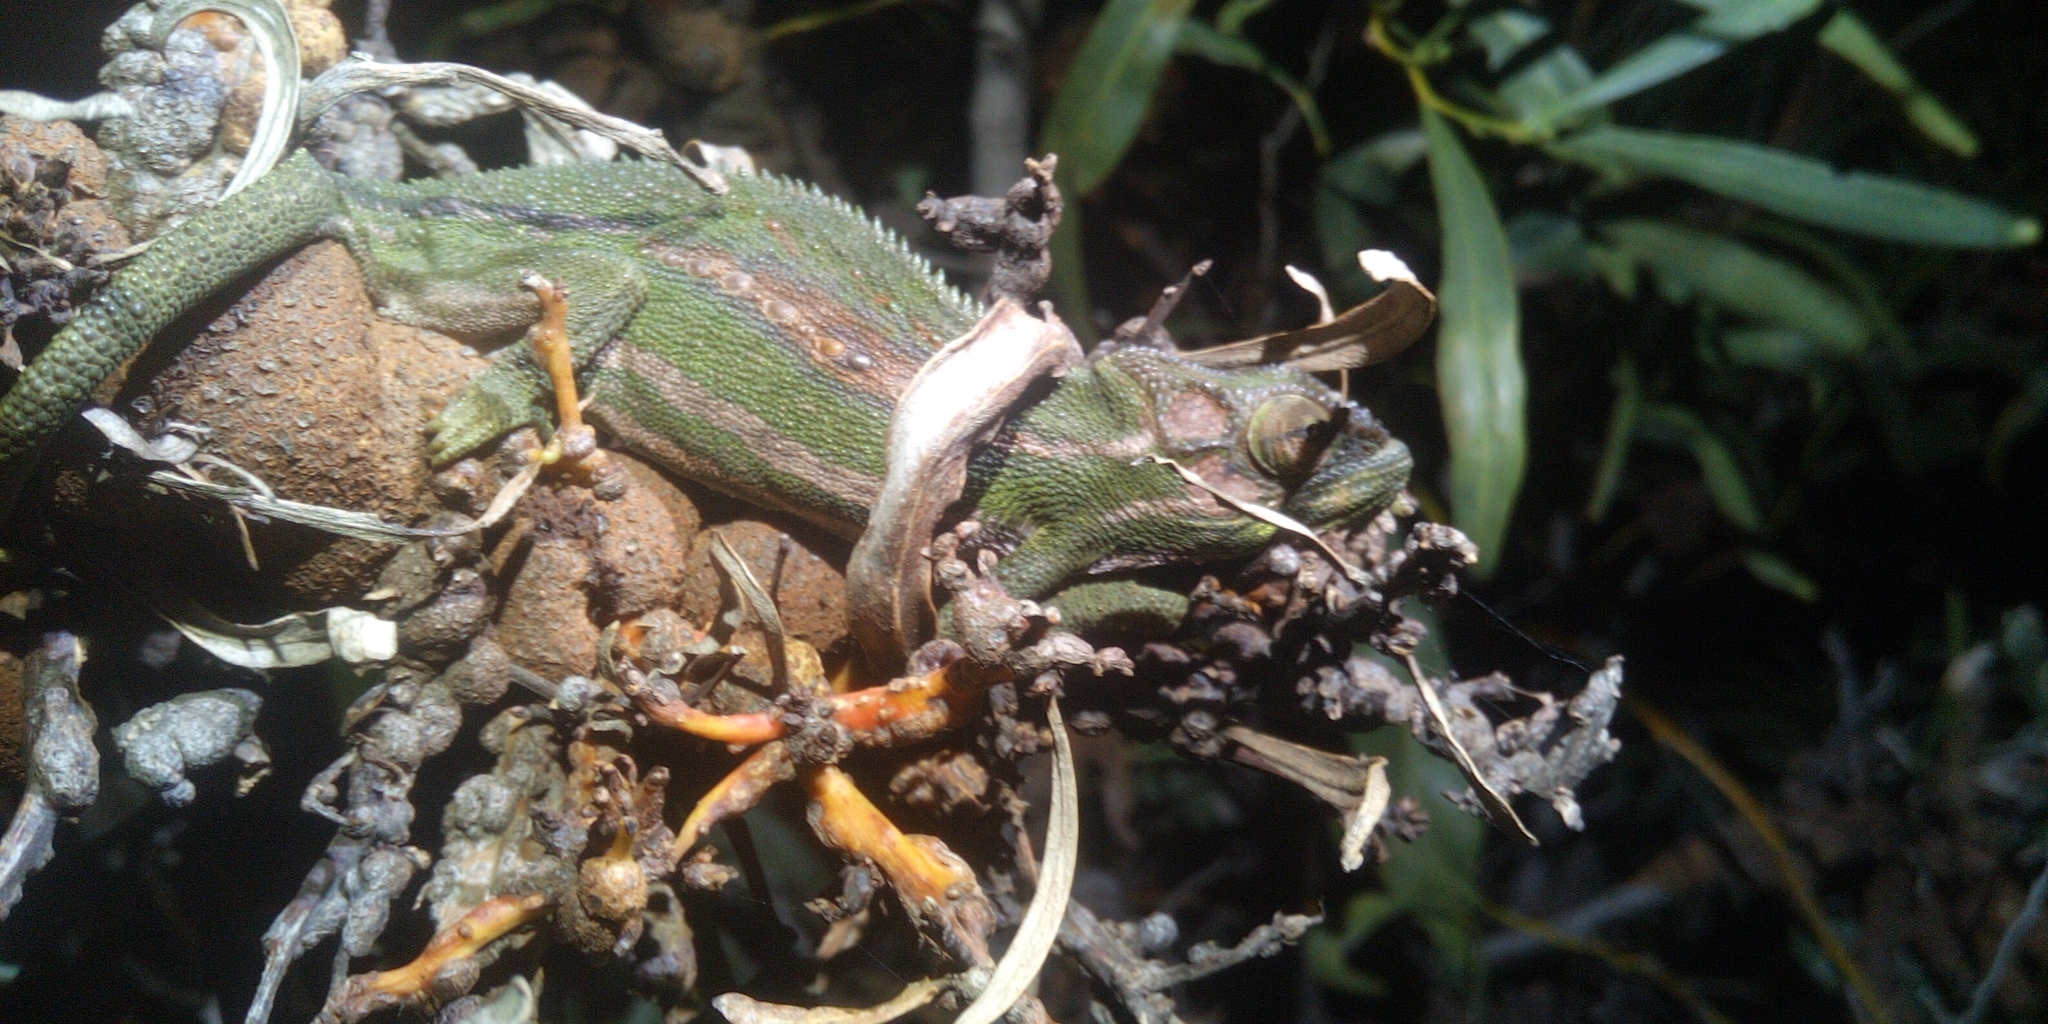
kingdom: Animalia
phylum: Chordata
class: Squamata
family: Chamaeleonidae
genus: Bradypodion
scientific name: Bradypodion pumilum
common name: Cape dwarf chameleon
